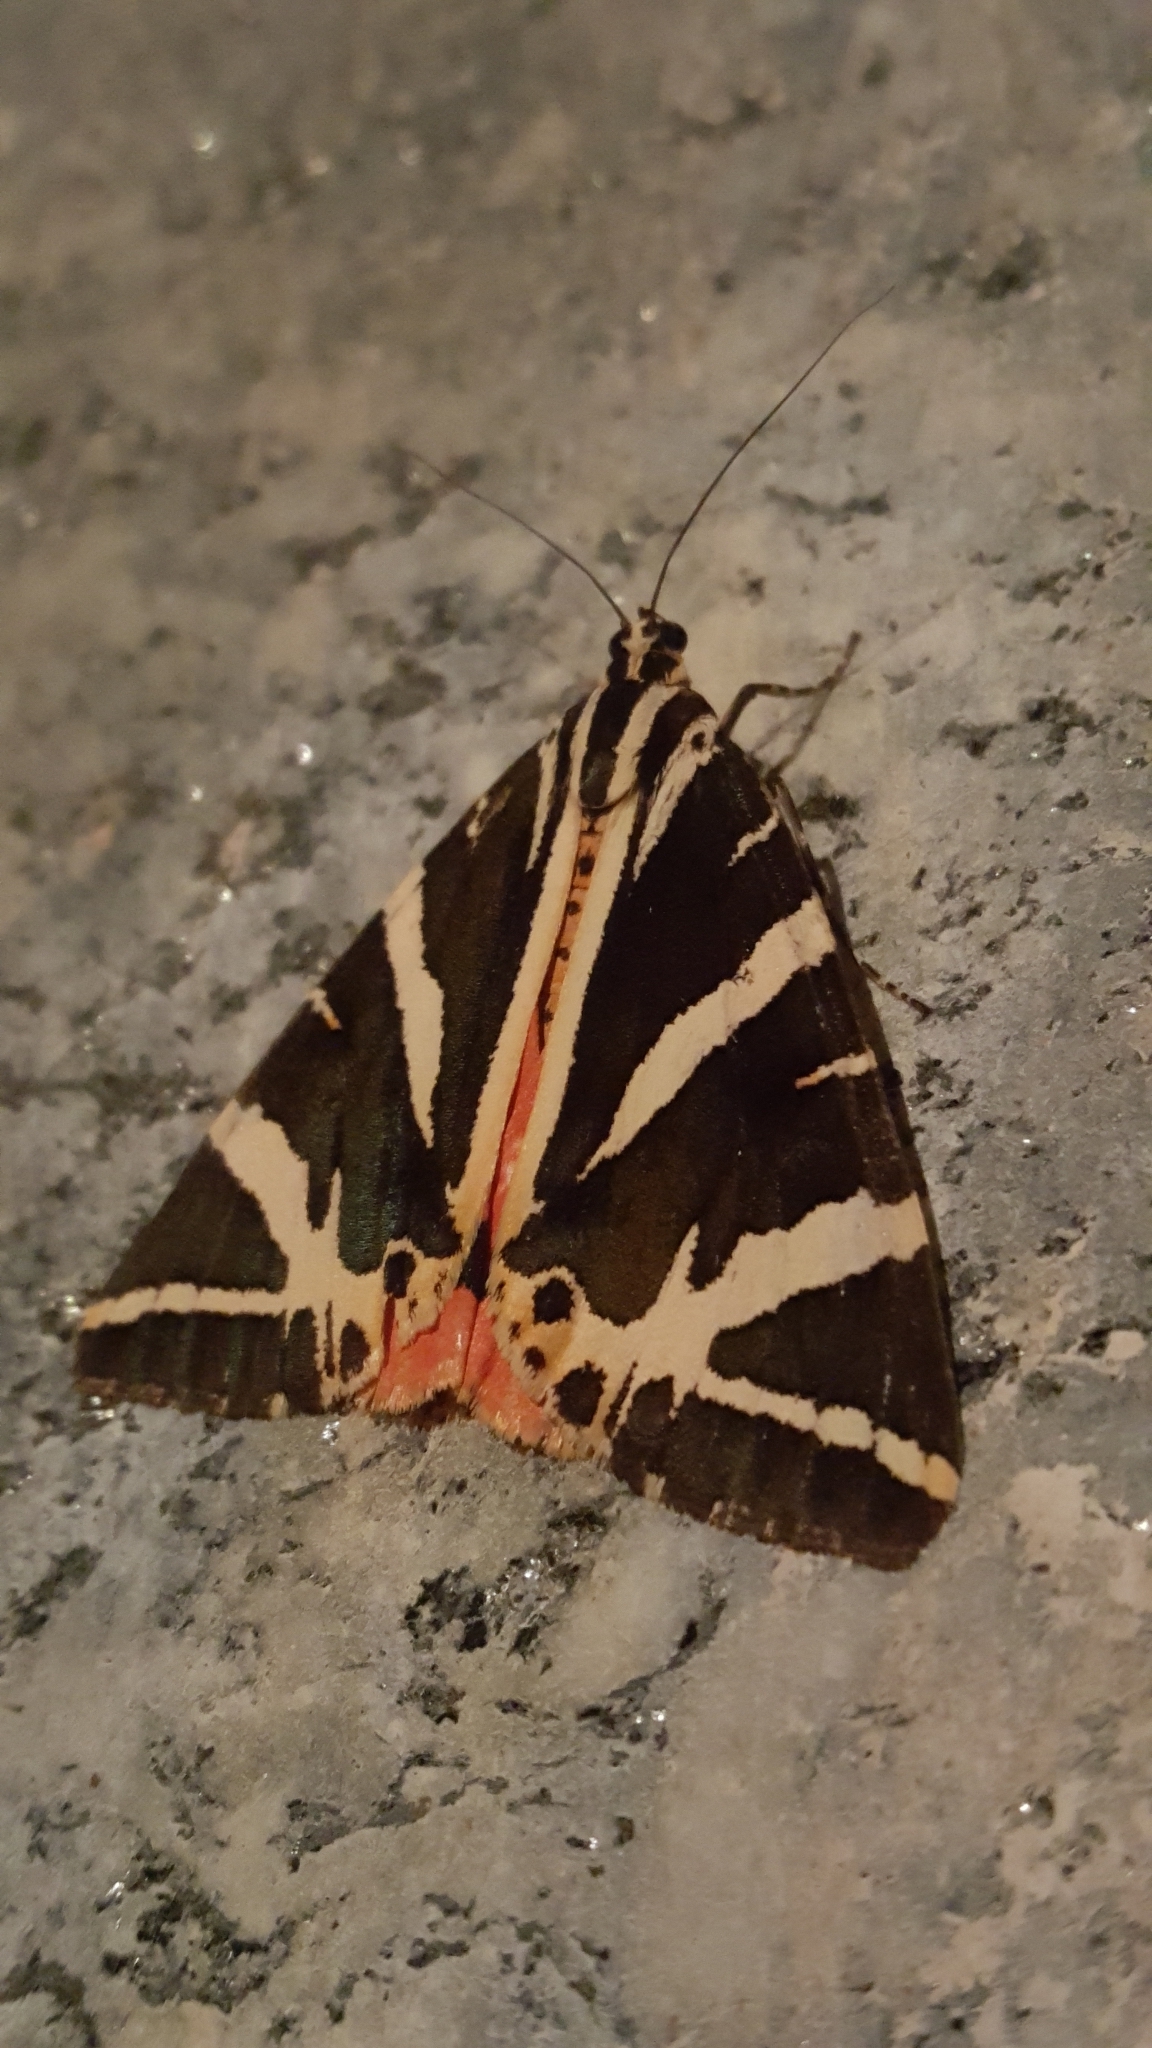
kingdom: Animalia
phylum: Arthropoda
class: Insecta
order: Lepidoptera
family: Erebidae
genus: Euplagia
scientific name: Euplagia quadripunctaria
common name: Jersey tiger
